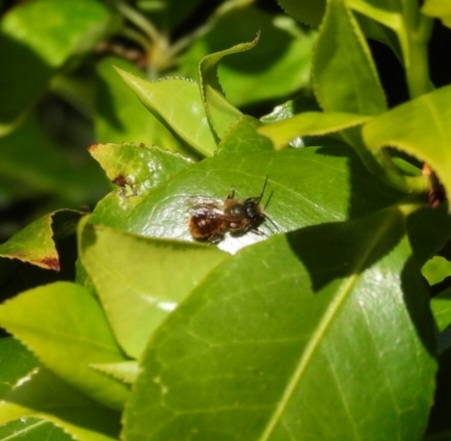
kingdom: Animalia
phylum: Arthropoda
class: Insecta
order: Hymenoptera
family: Megachilidae
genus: Osmia
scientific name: Osmia bicornis
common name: Red mason bee
